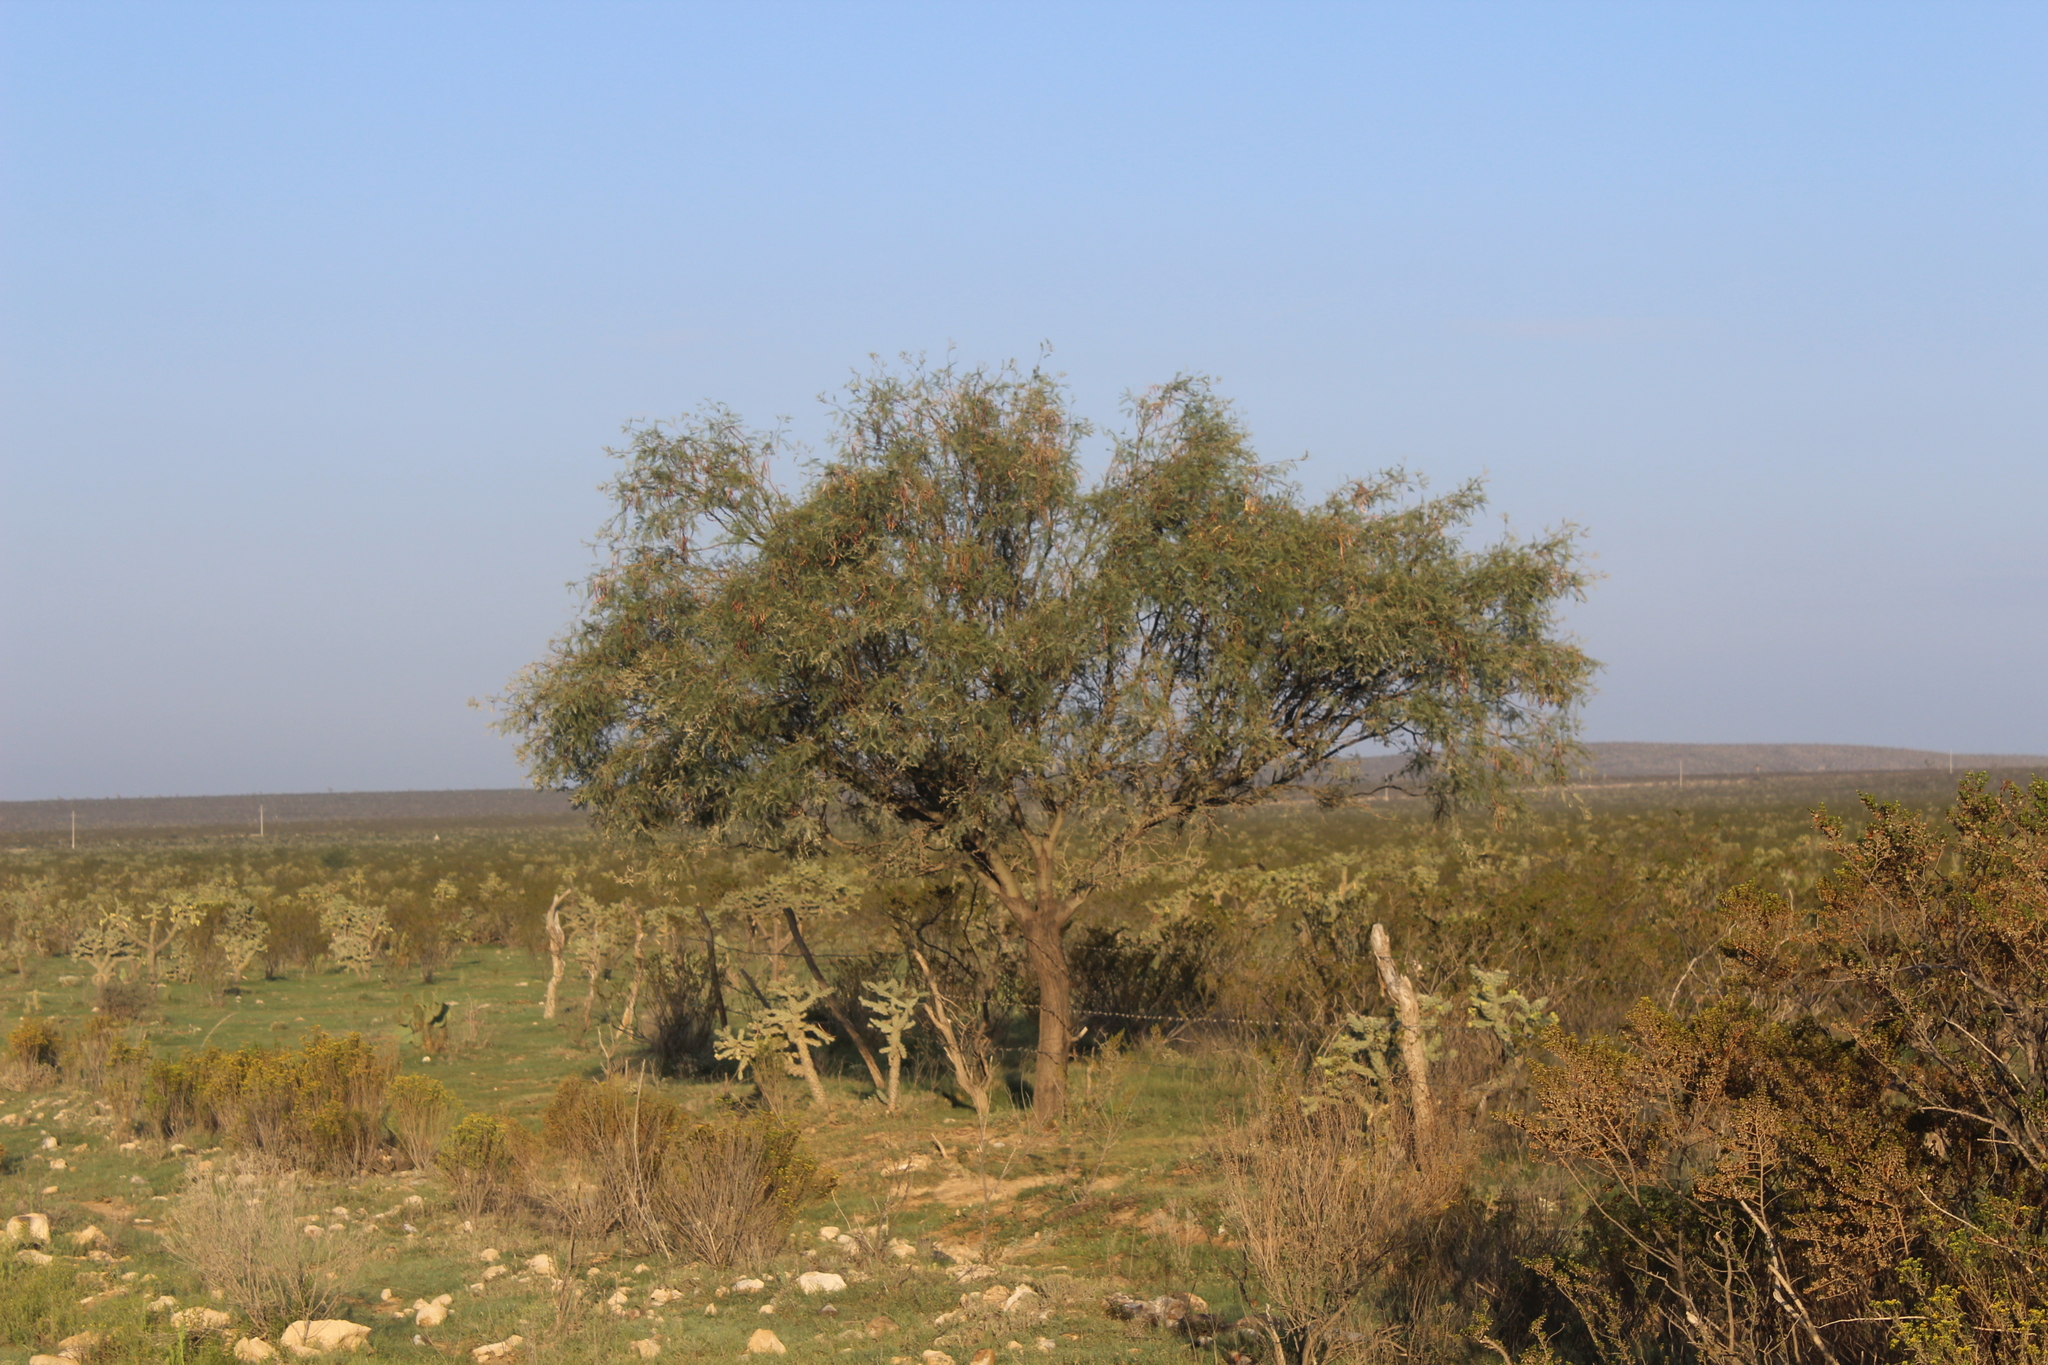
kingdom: Plantae
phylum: Tracheophyta
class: Magnoliopsida
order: Fabales
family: Fabaceae
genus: Prosopis
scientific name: Prosopis glandulosa
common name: Honey mesquite
